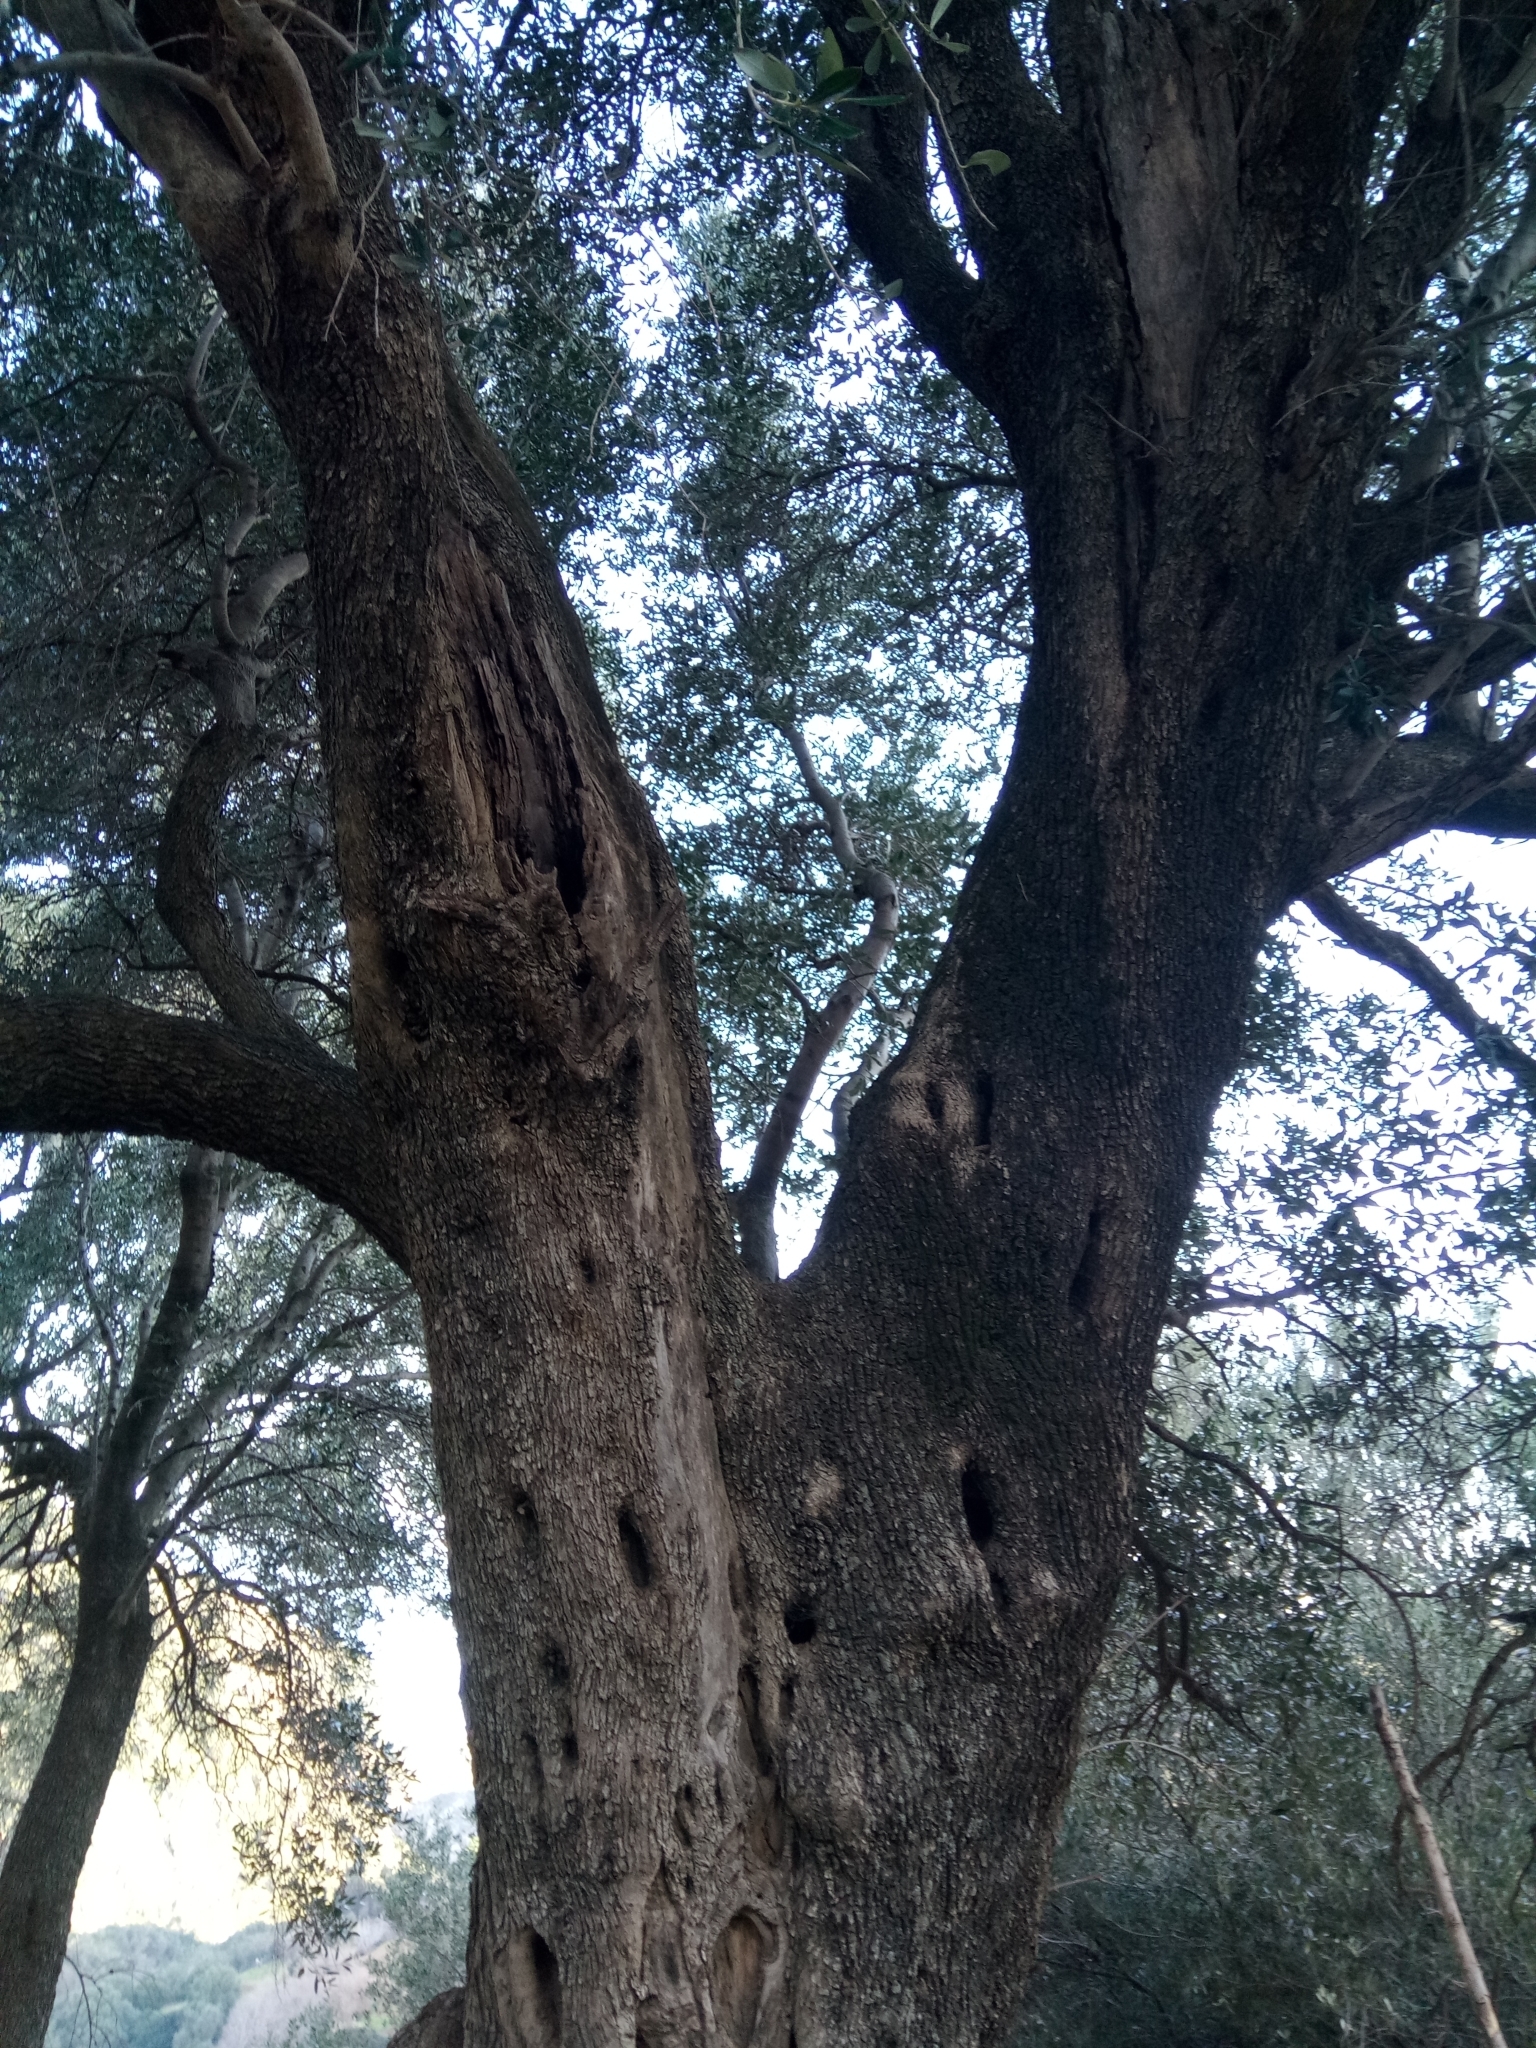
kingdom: Plantae
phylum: Tracheophyta
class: Magnoliopsida
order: Lamiales
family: Oleaceae
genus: Olea
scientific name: Olea europaea
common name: Olive
